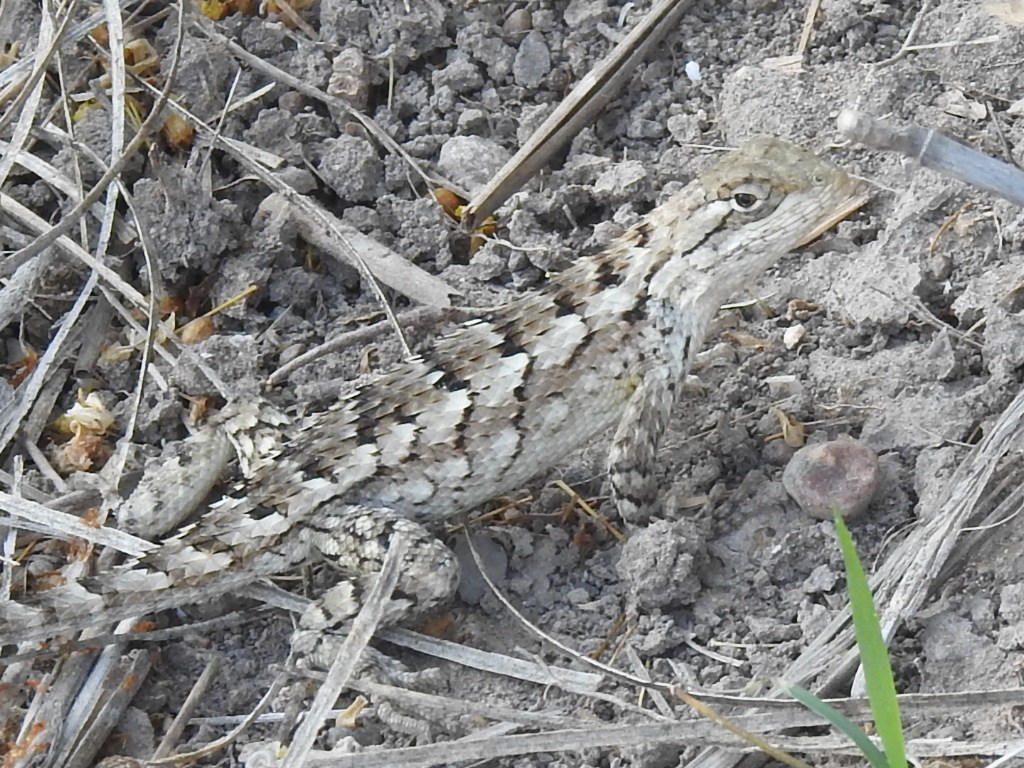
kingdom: Animalia
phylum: Chordata
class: Squamata
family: Phrynosomatidae
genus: Sceloporus
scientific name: Sceloporus olivaceus
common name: Texas spiny lizard
